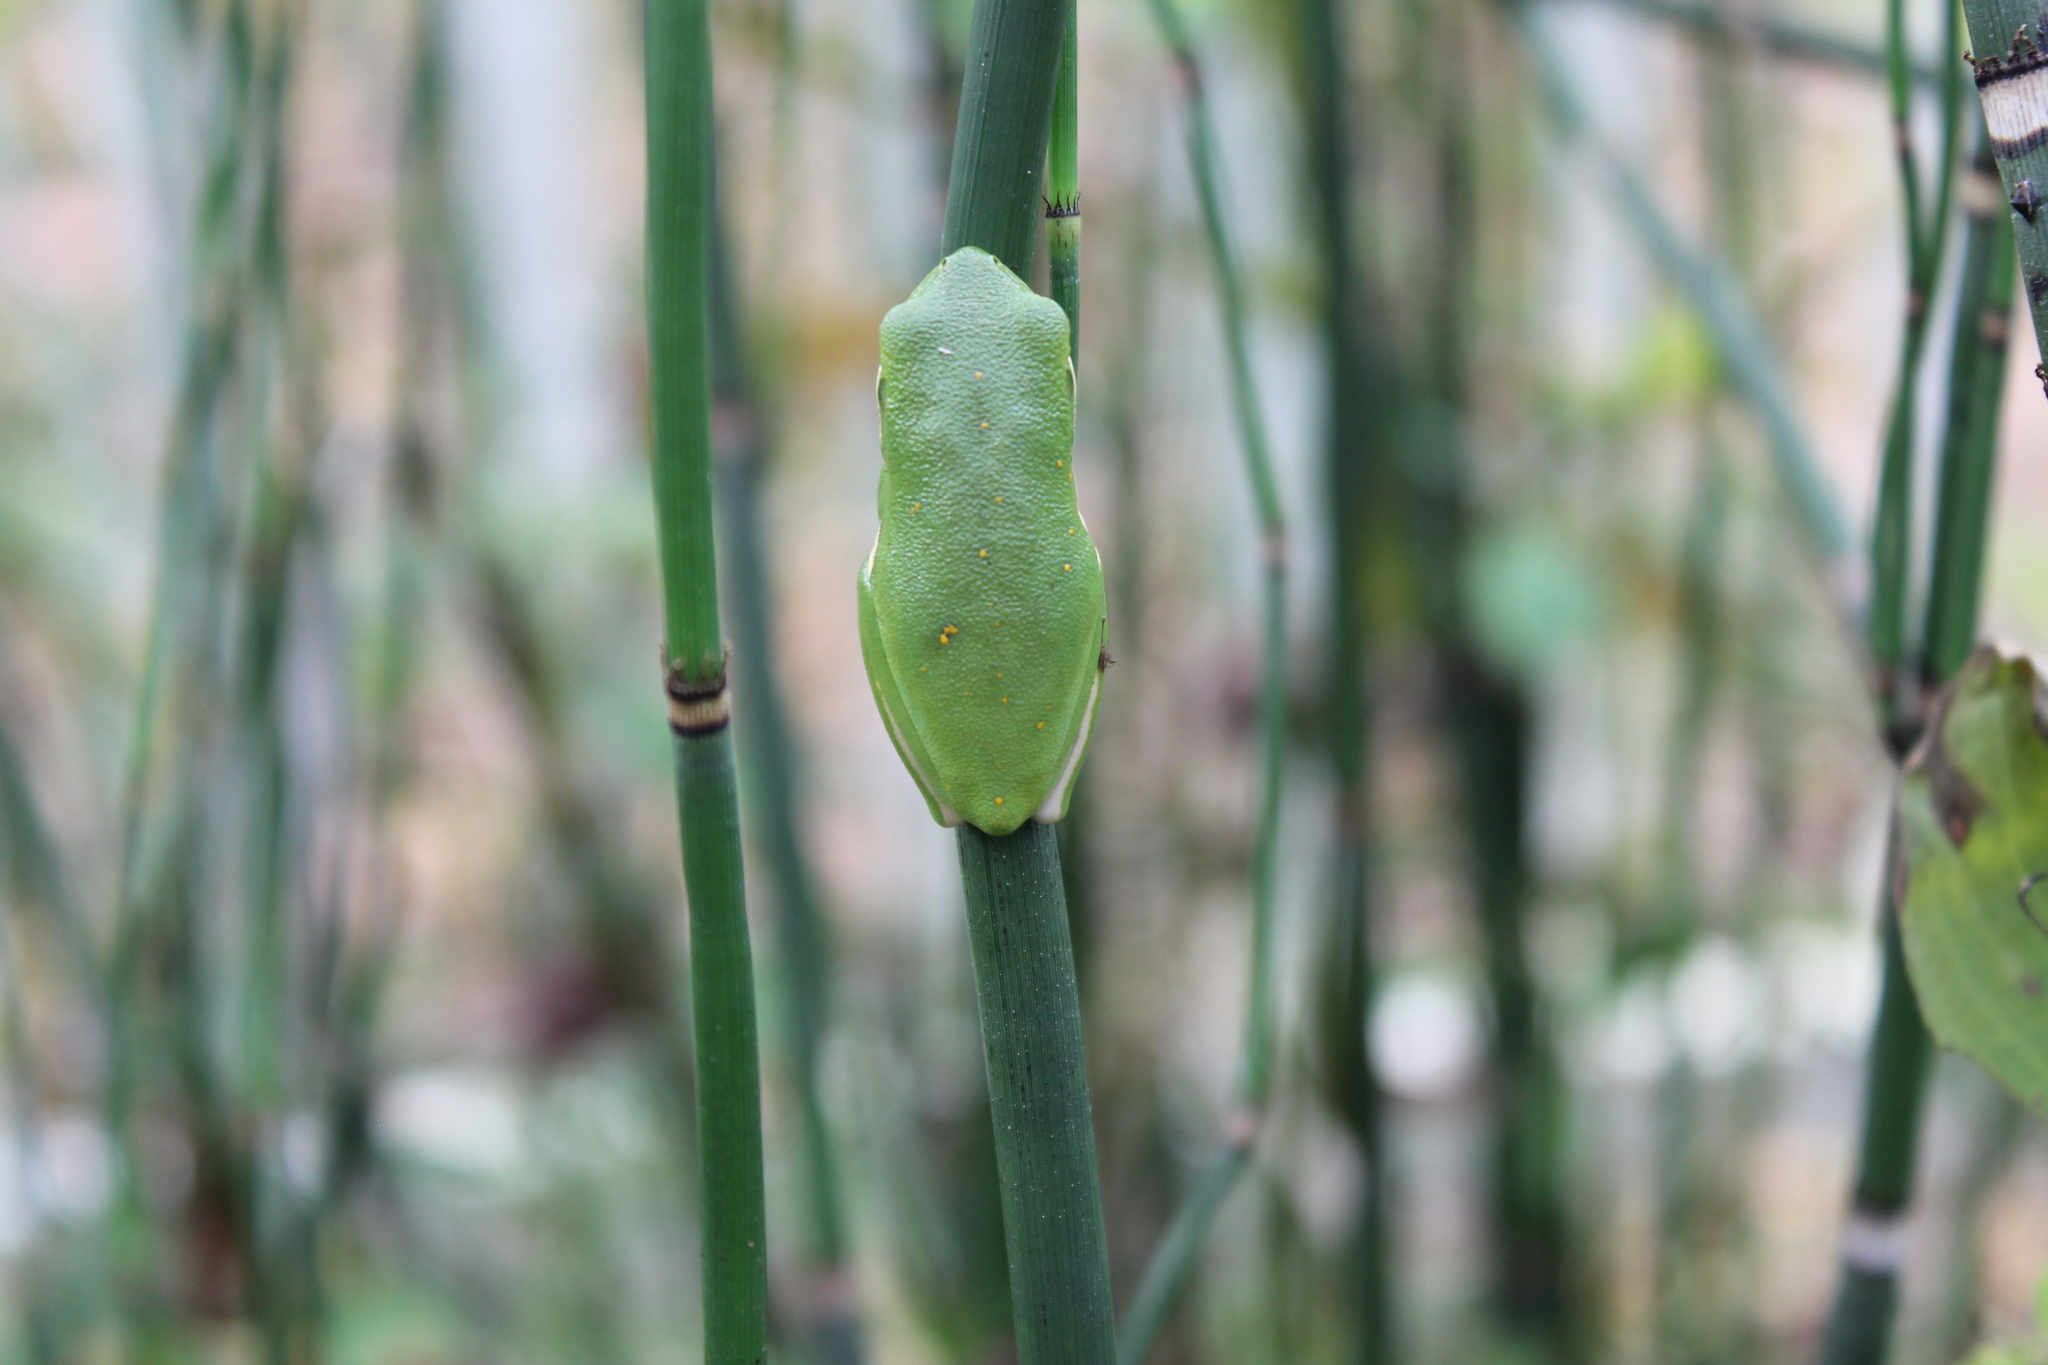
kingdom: Animalia
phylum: Chordata
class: Amphibia
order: Anura
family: Hylidae
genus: Dryophytes
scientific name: Dryophytes cinereus
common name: Green treefrog
